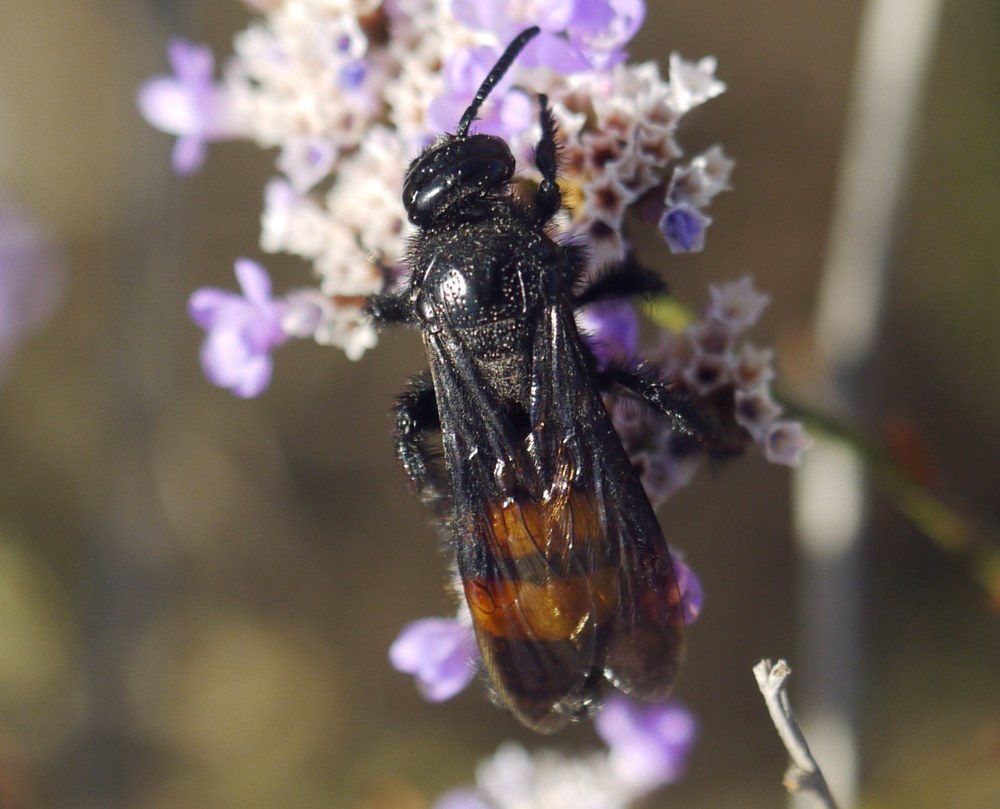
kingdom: Animalia
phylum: Arthropoda
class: Insecta
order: Hymenoptera
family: Scoliidae
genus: Scolia
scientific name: Scolia hirta
